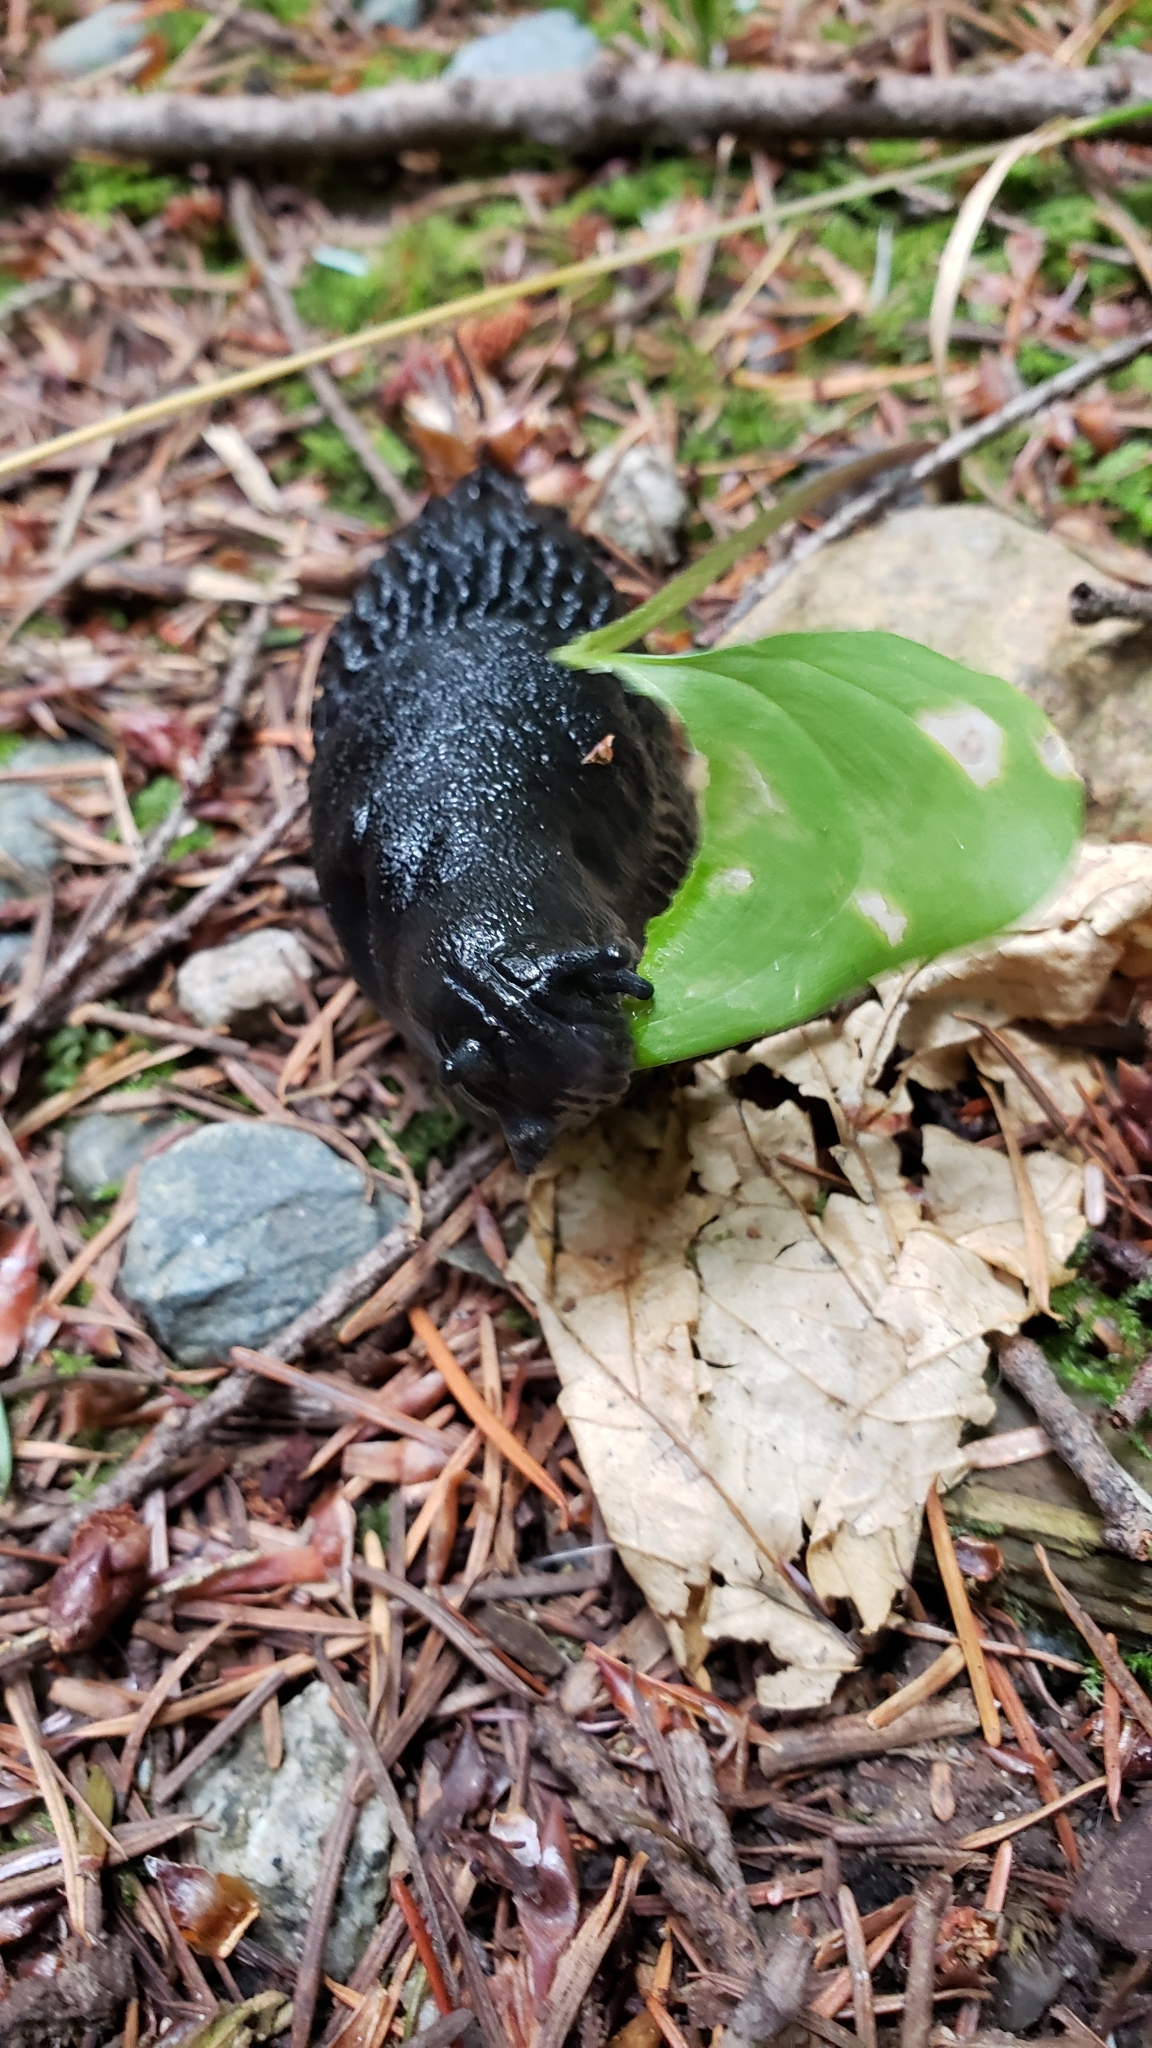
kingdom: Animalia
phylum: Mollusca
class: Gastropoda
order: Stylommatophora
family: Arionidae
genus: Arion
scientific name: Arion
